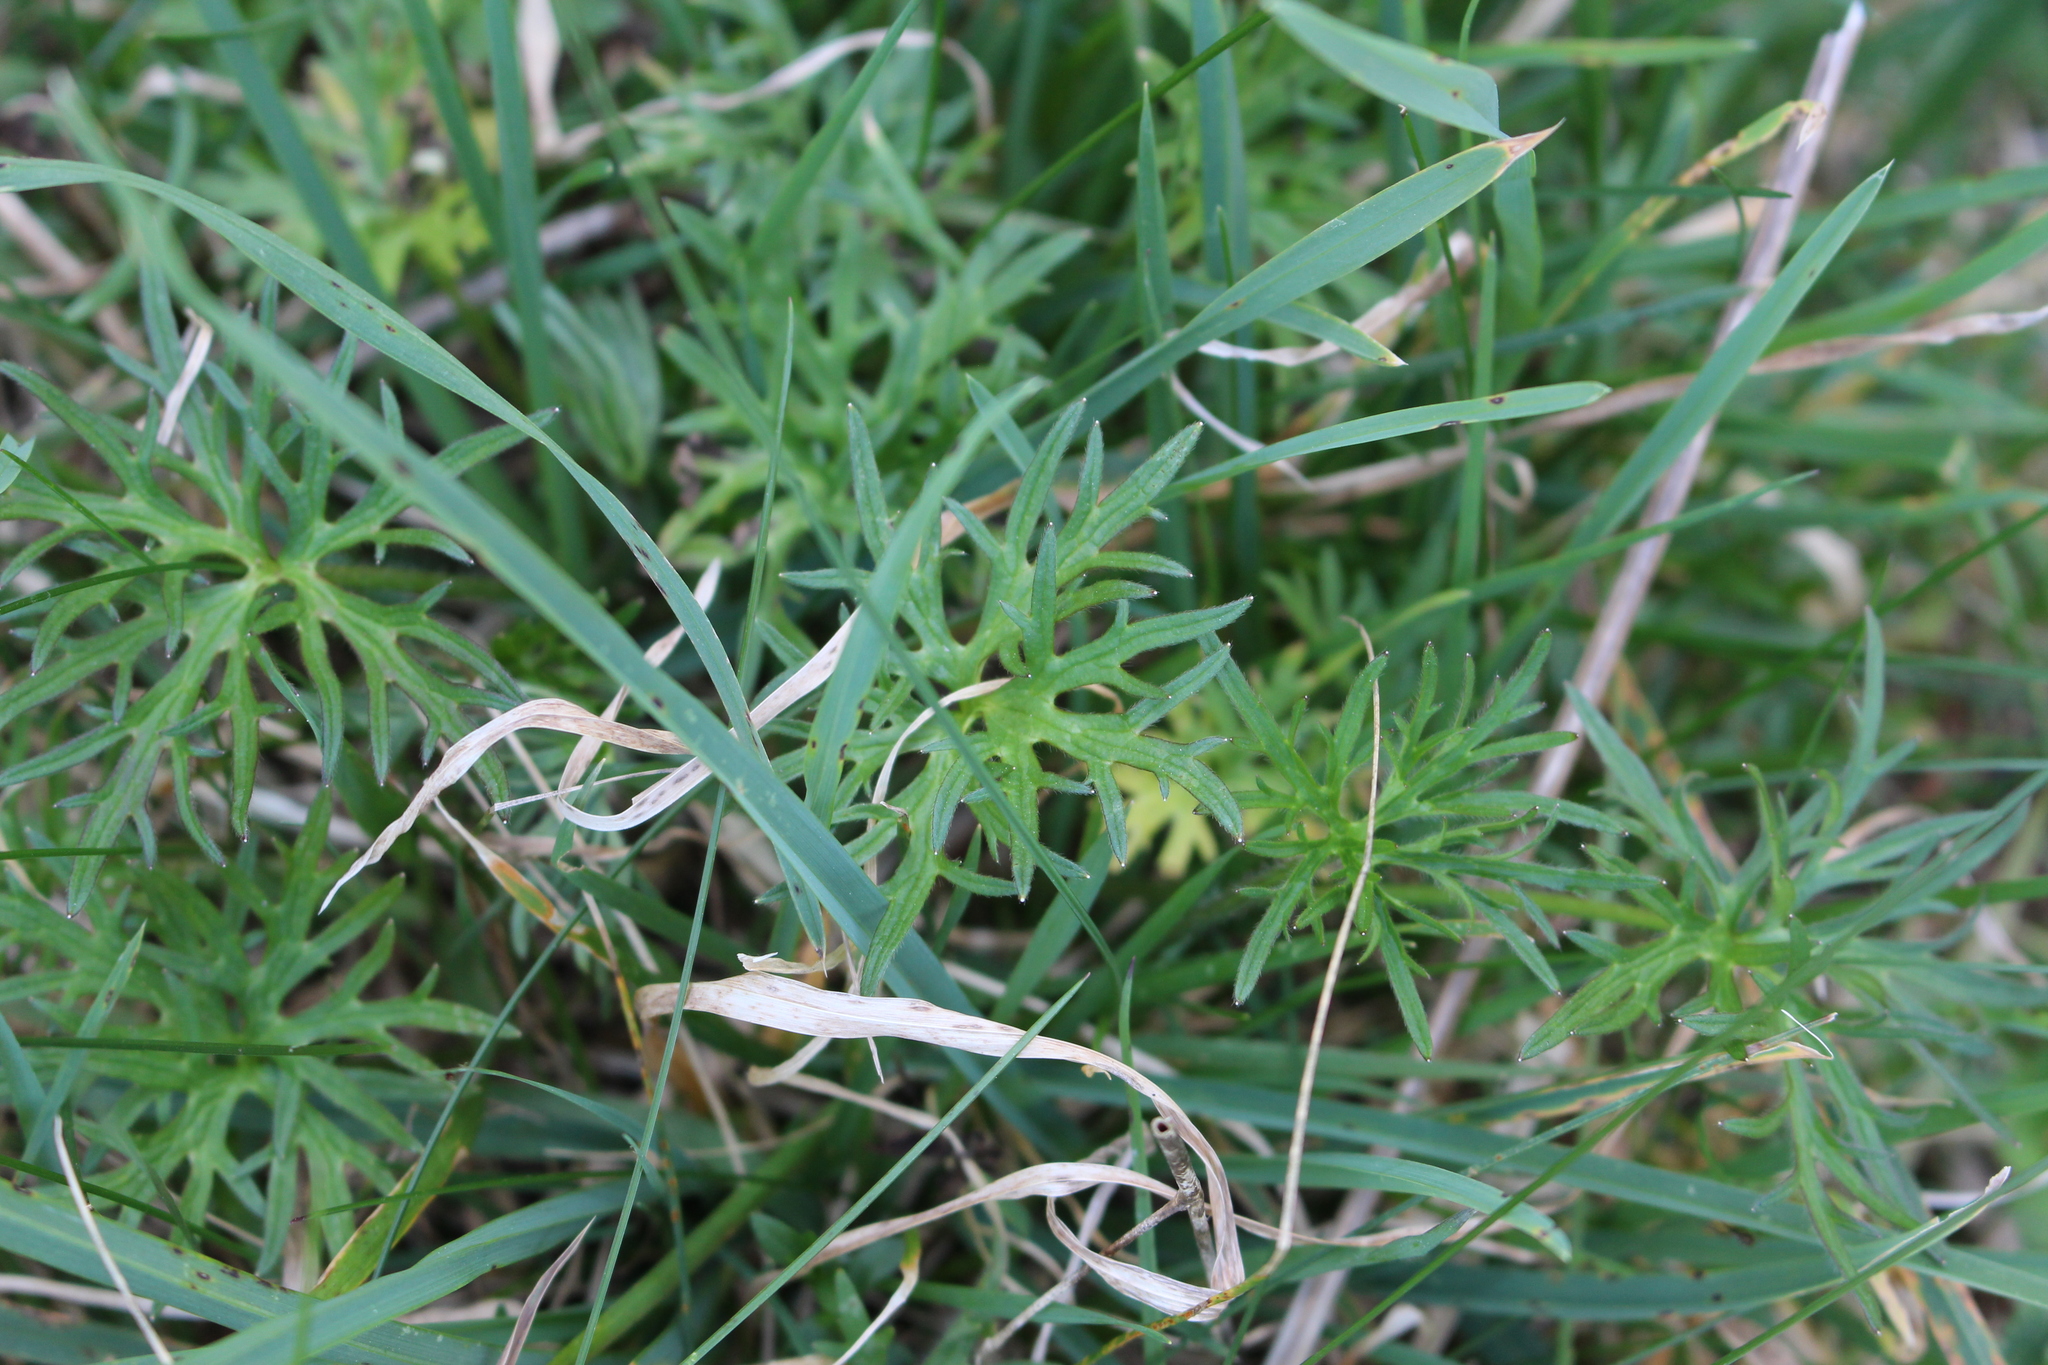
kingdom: Plantae
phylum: Tracheophyta
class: Magnoliopsida
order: Ranunculales
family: Ranunculaceae
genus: Ranunculus
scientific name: Ranunculus acris
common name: Meadow buttercup
